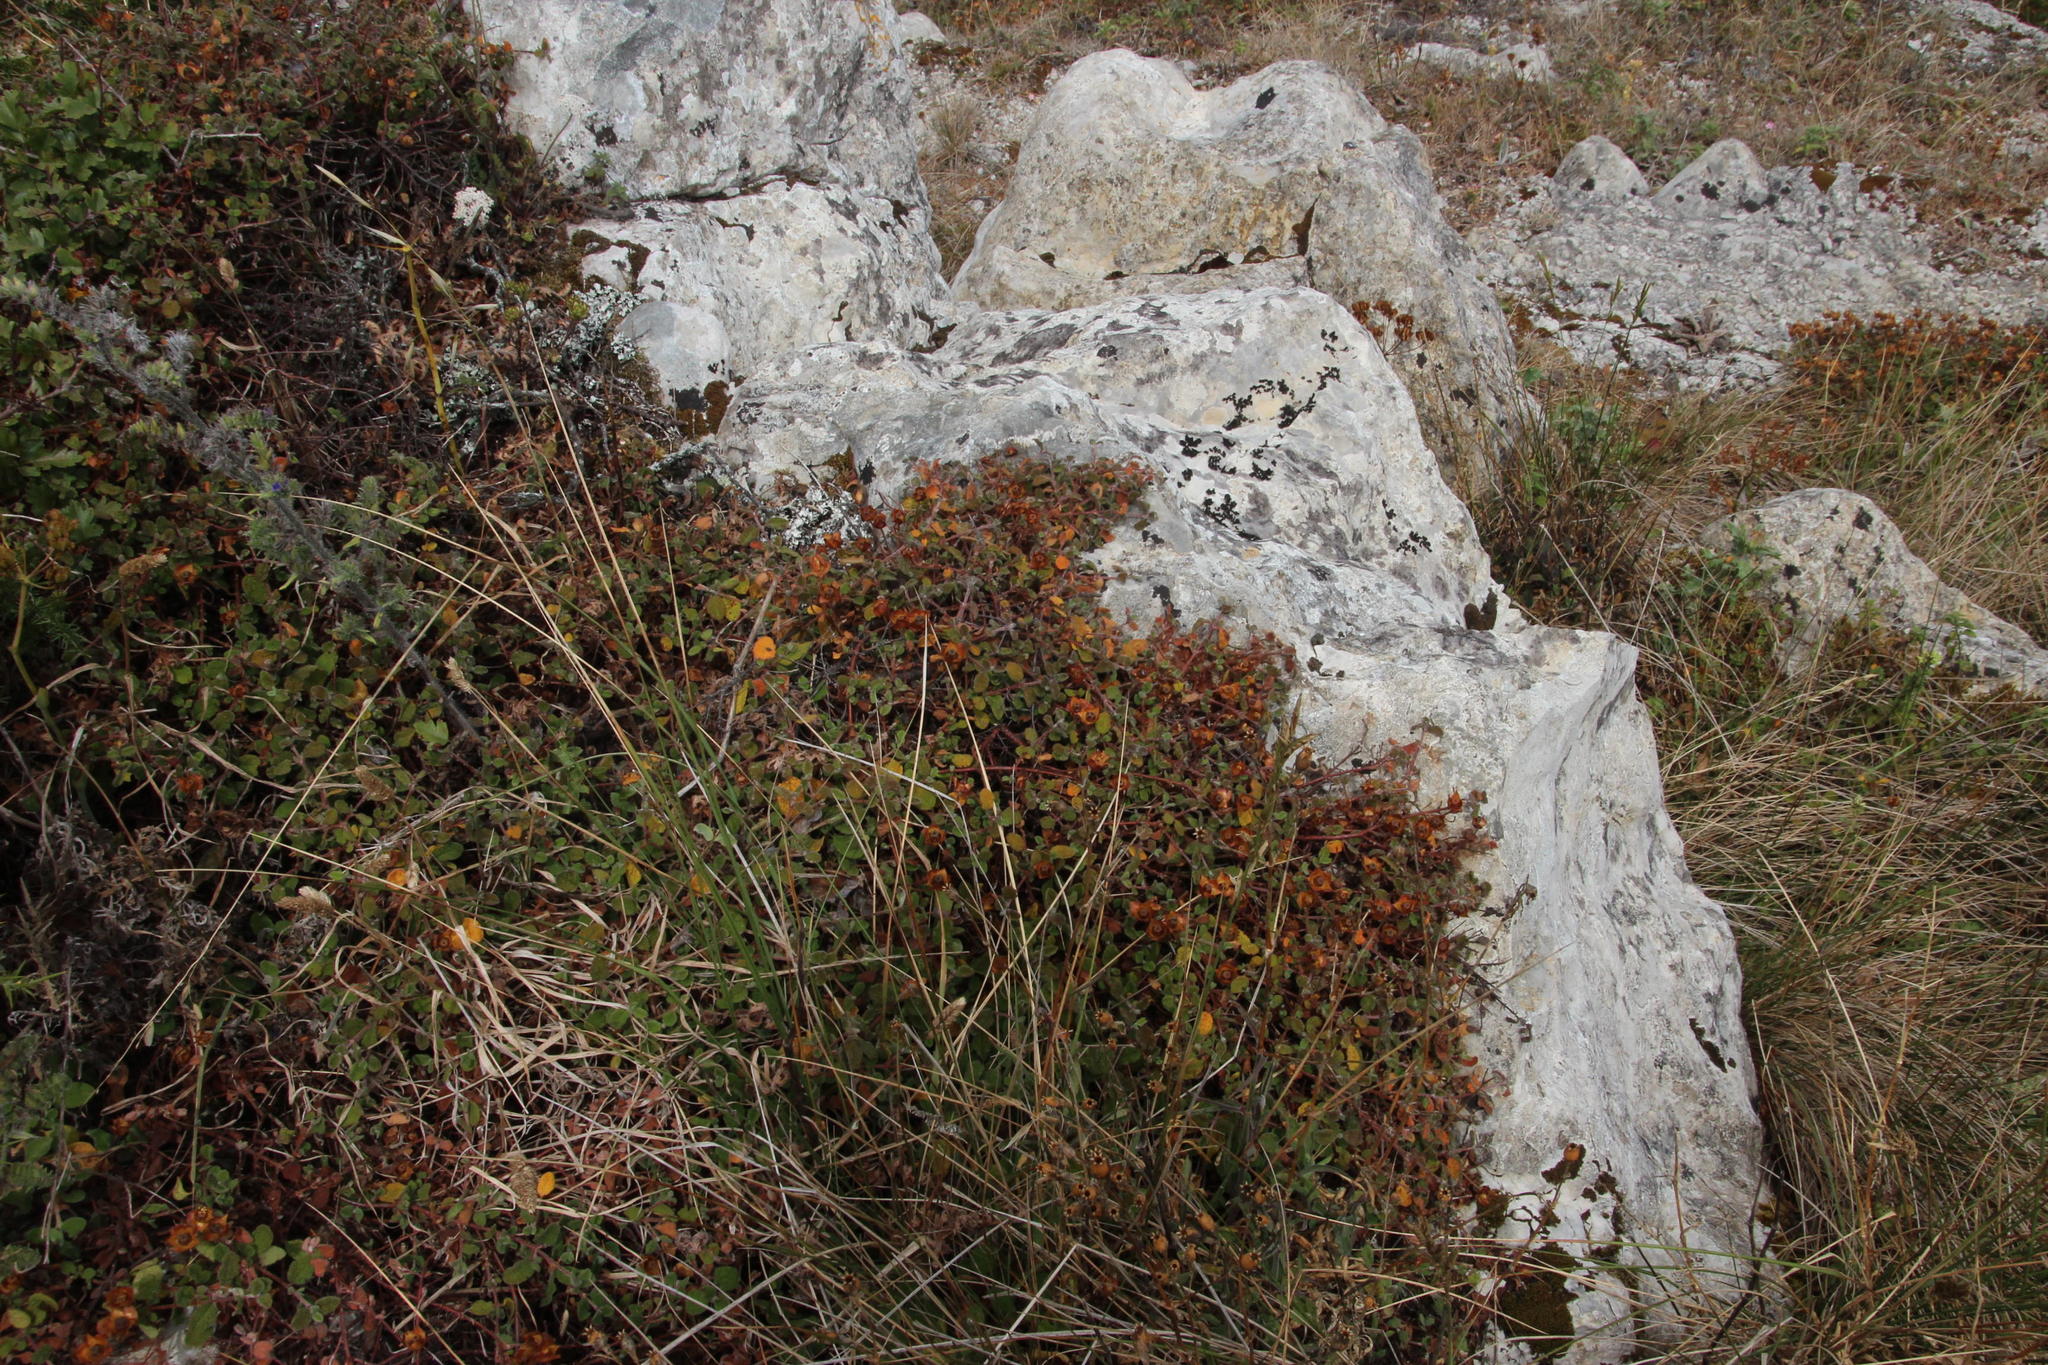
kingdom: Plantae
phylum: Tracheophyta
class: Magnoliopsida
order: Malvales
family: Cistaceae
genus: Cistus
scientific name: Cistus salviifolius
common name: Salvia cistus
